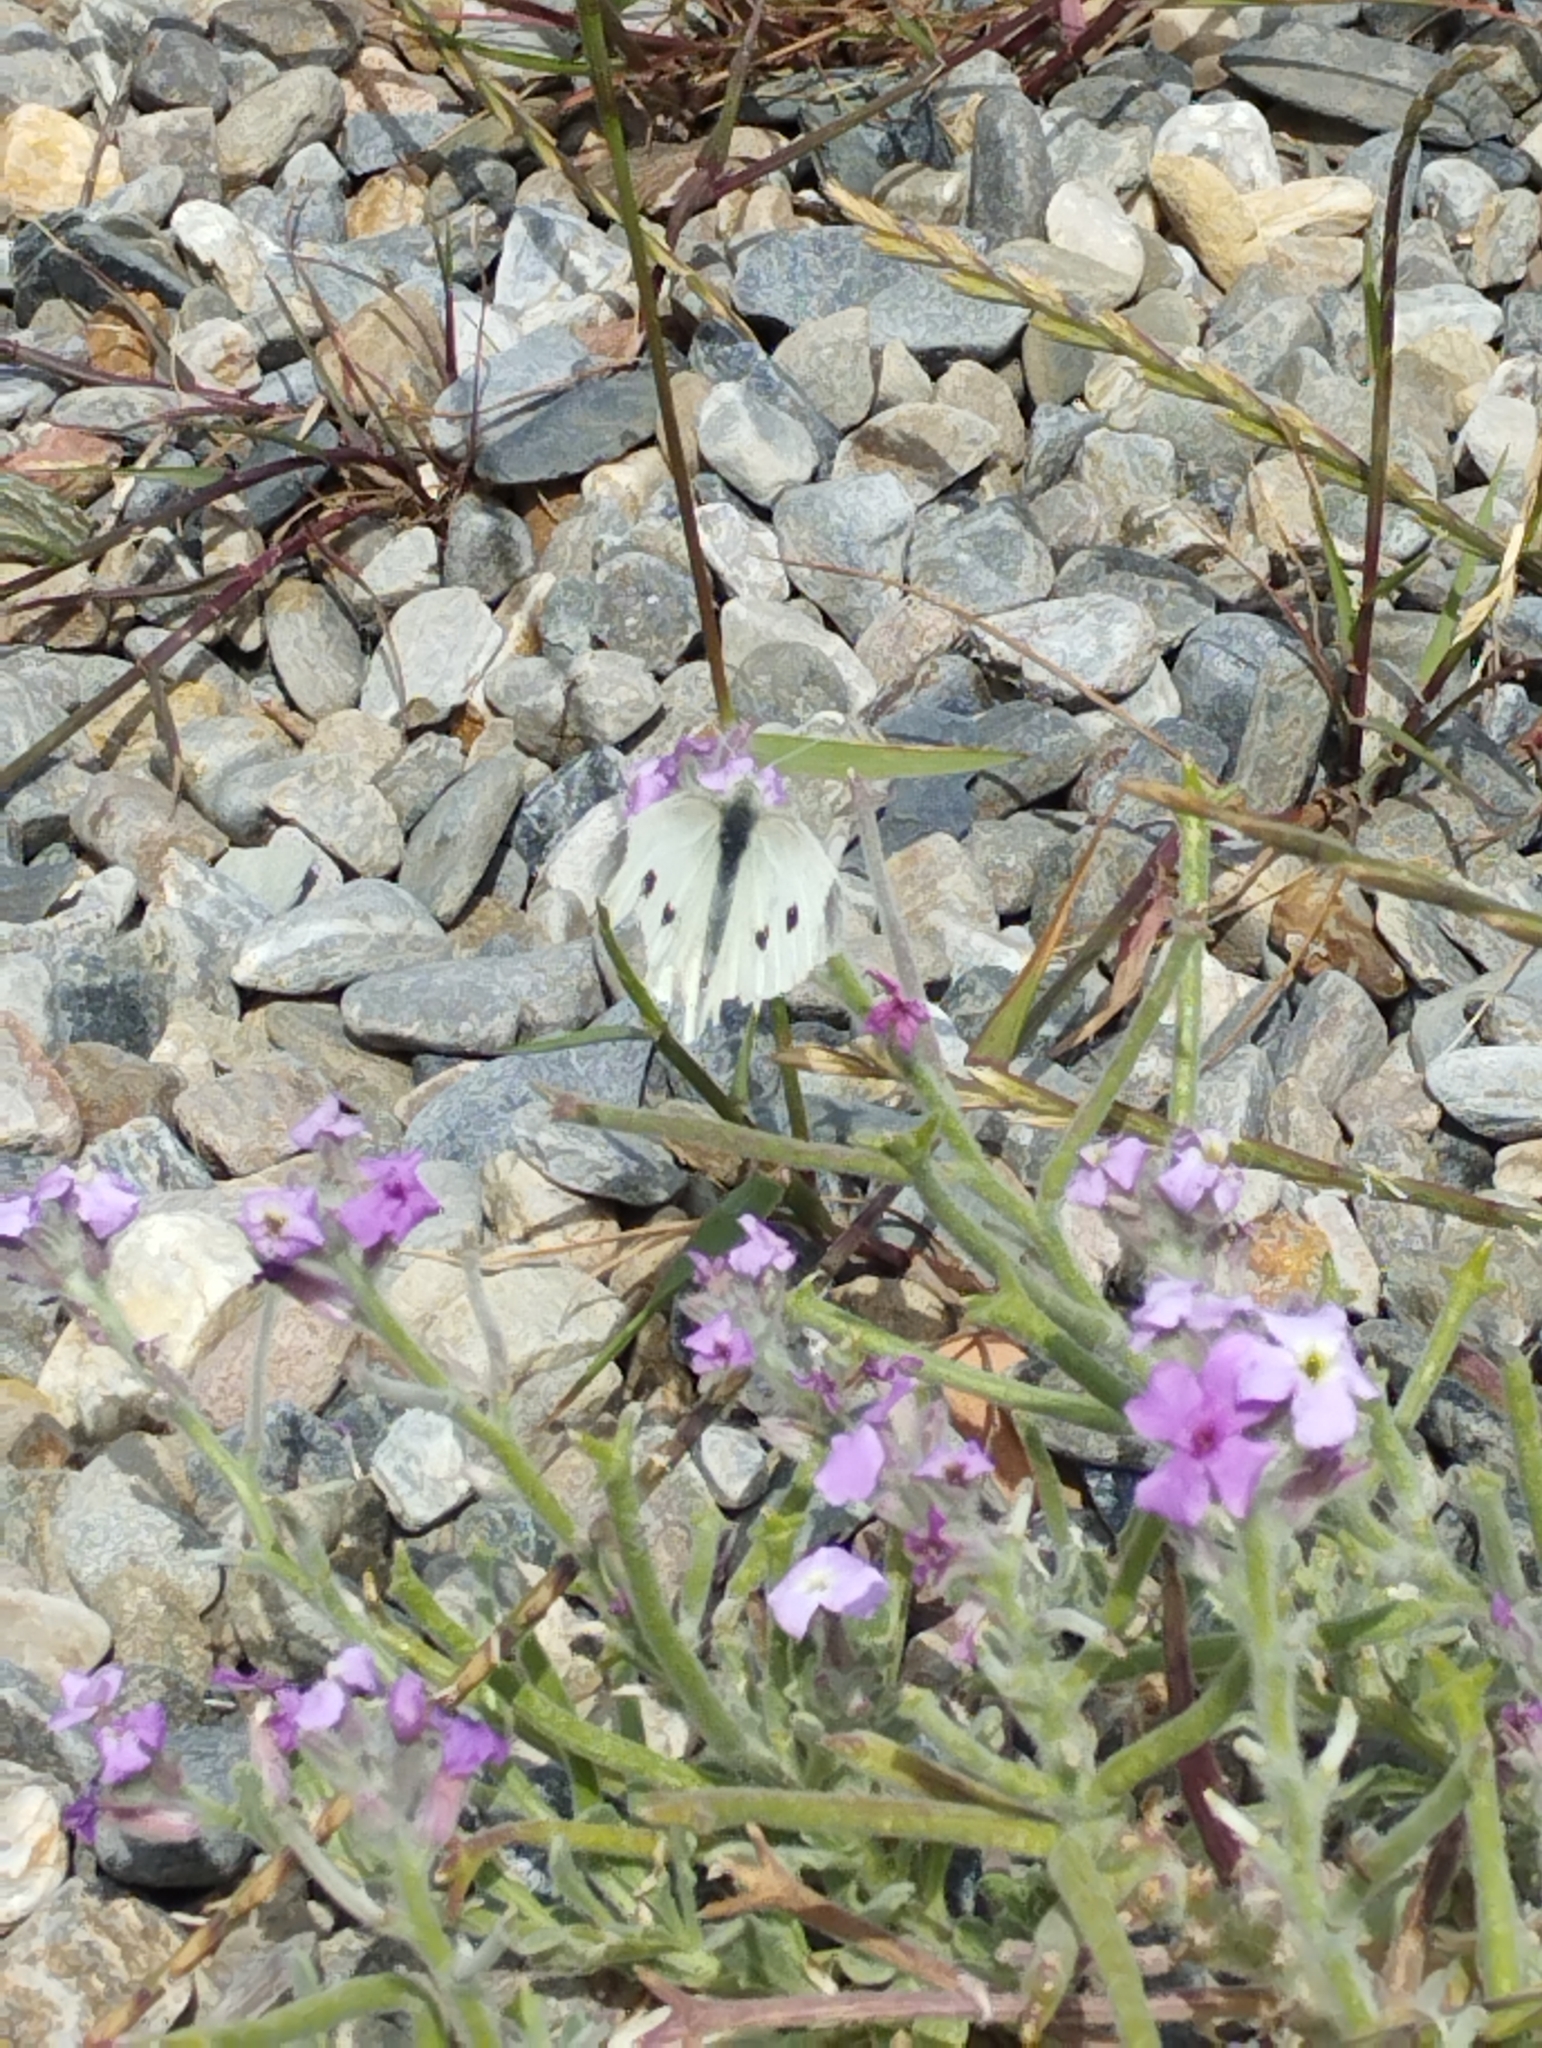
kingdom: Animalia
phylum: Arthropoda
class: Insecta
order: Lepidoptera
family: Pieridae
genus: Pieris
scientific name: Pieris rapae
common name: Small white
